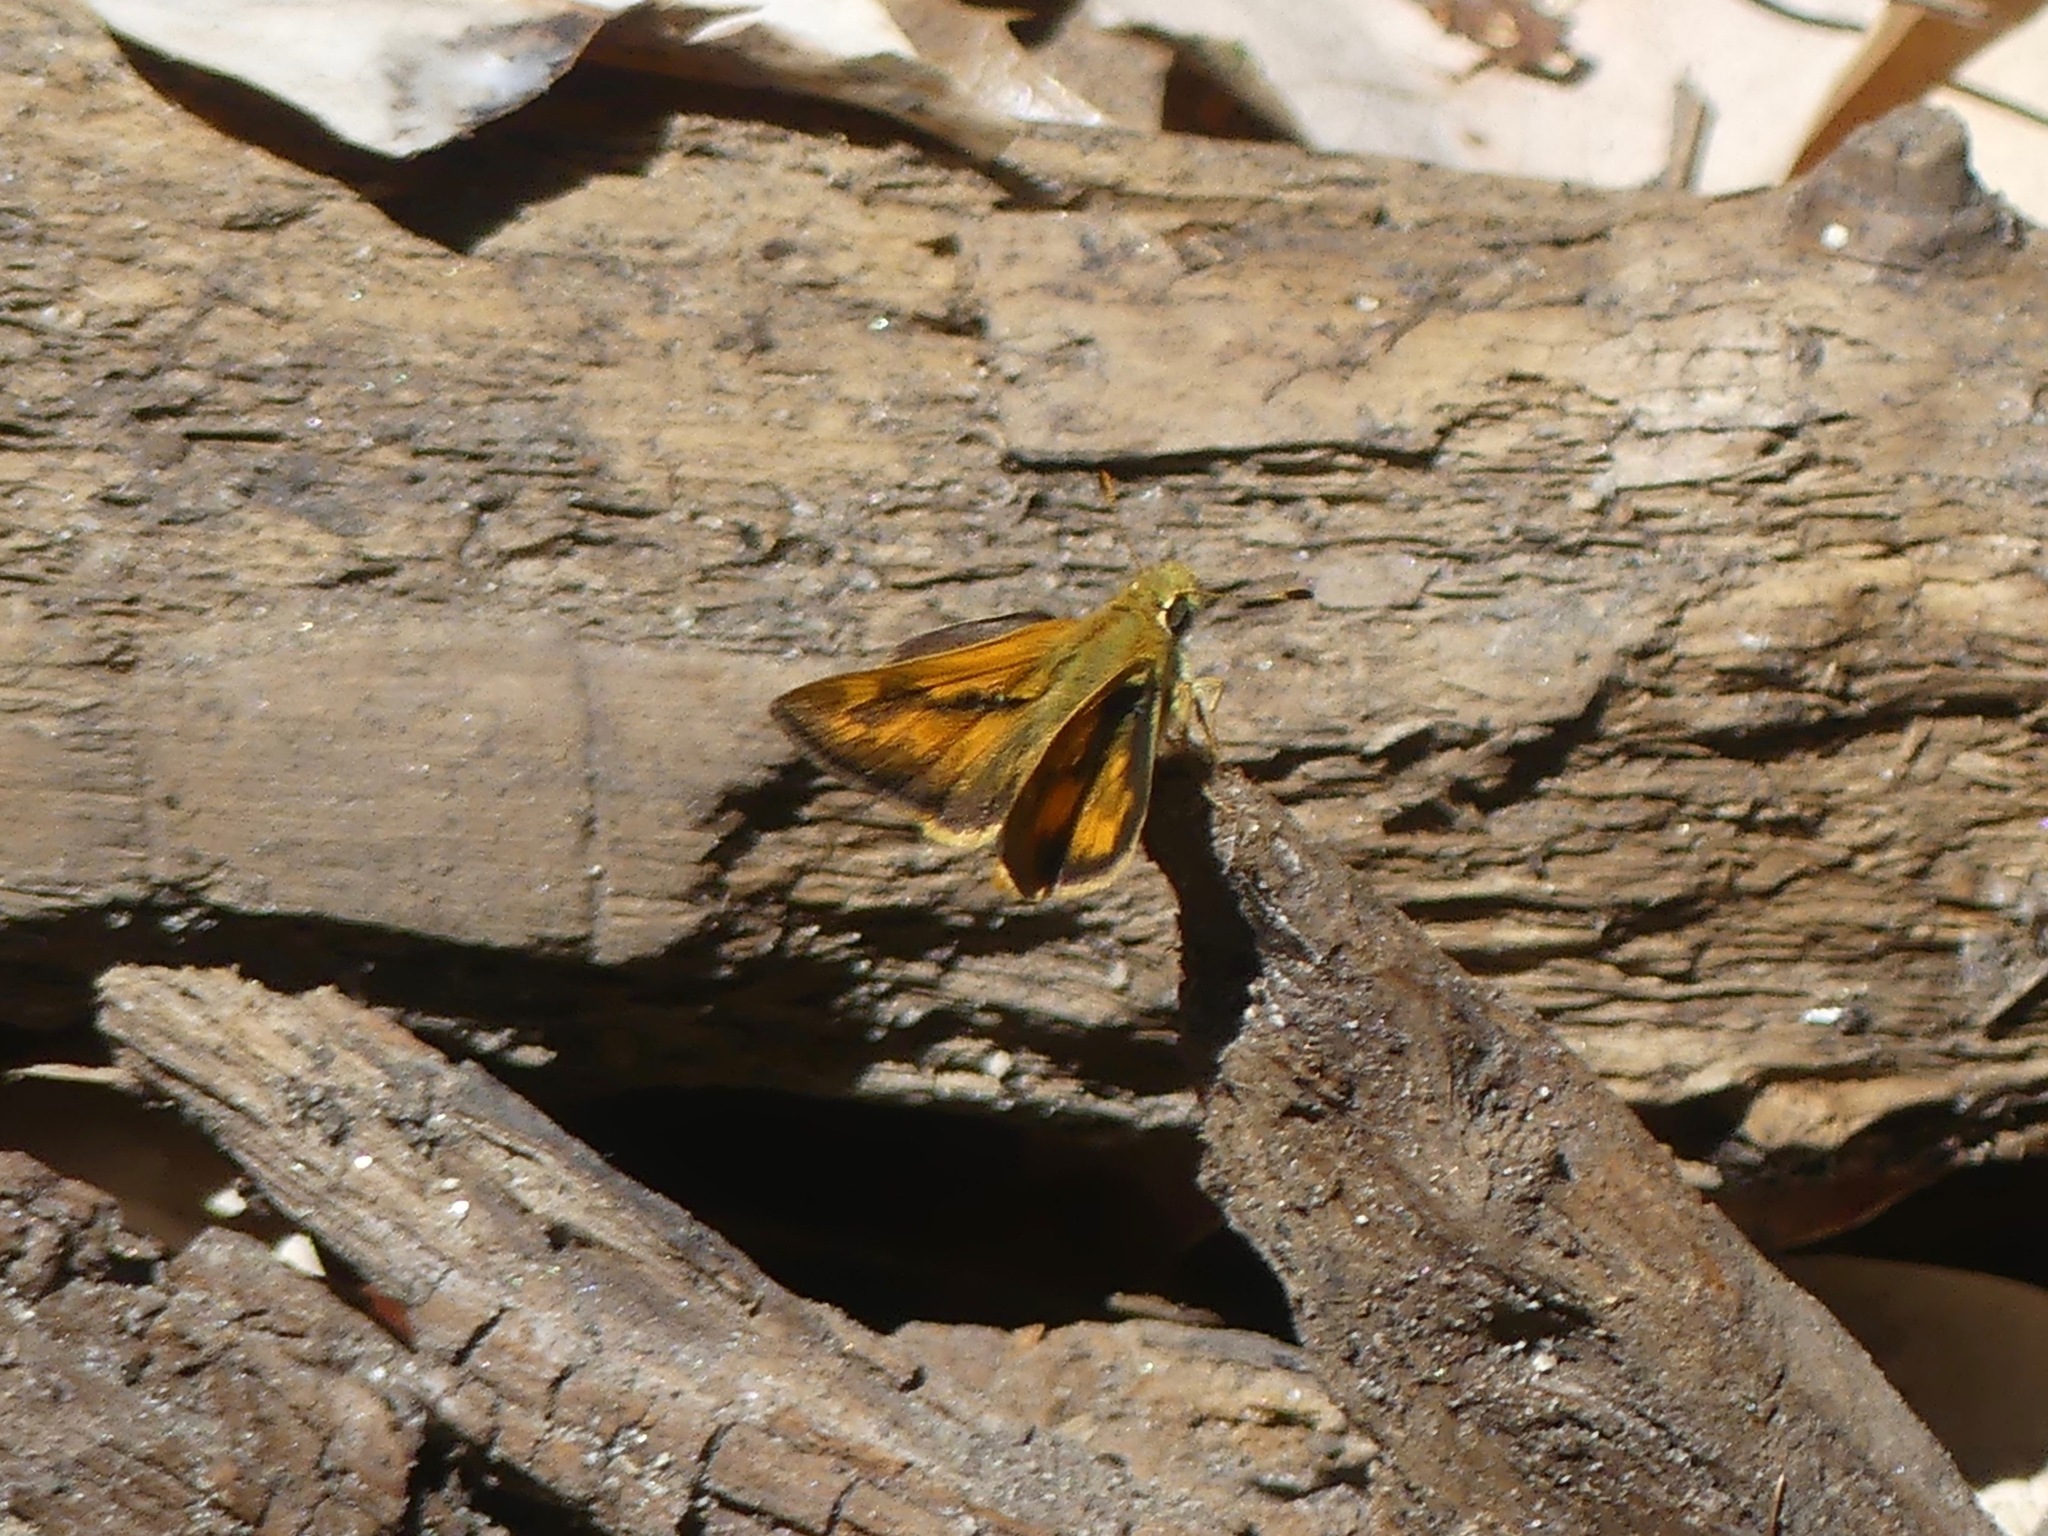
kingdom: Animalia
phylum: Arthropoda
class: Insecta
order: Lepidoptera
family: Hesperiidae
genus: Ochlodes
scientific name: Ochlodes sylvanoides
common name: Woodland skipper
